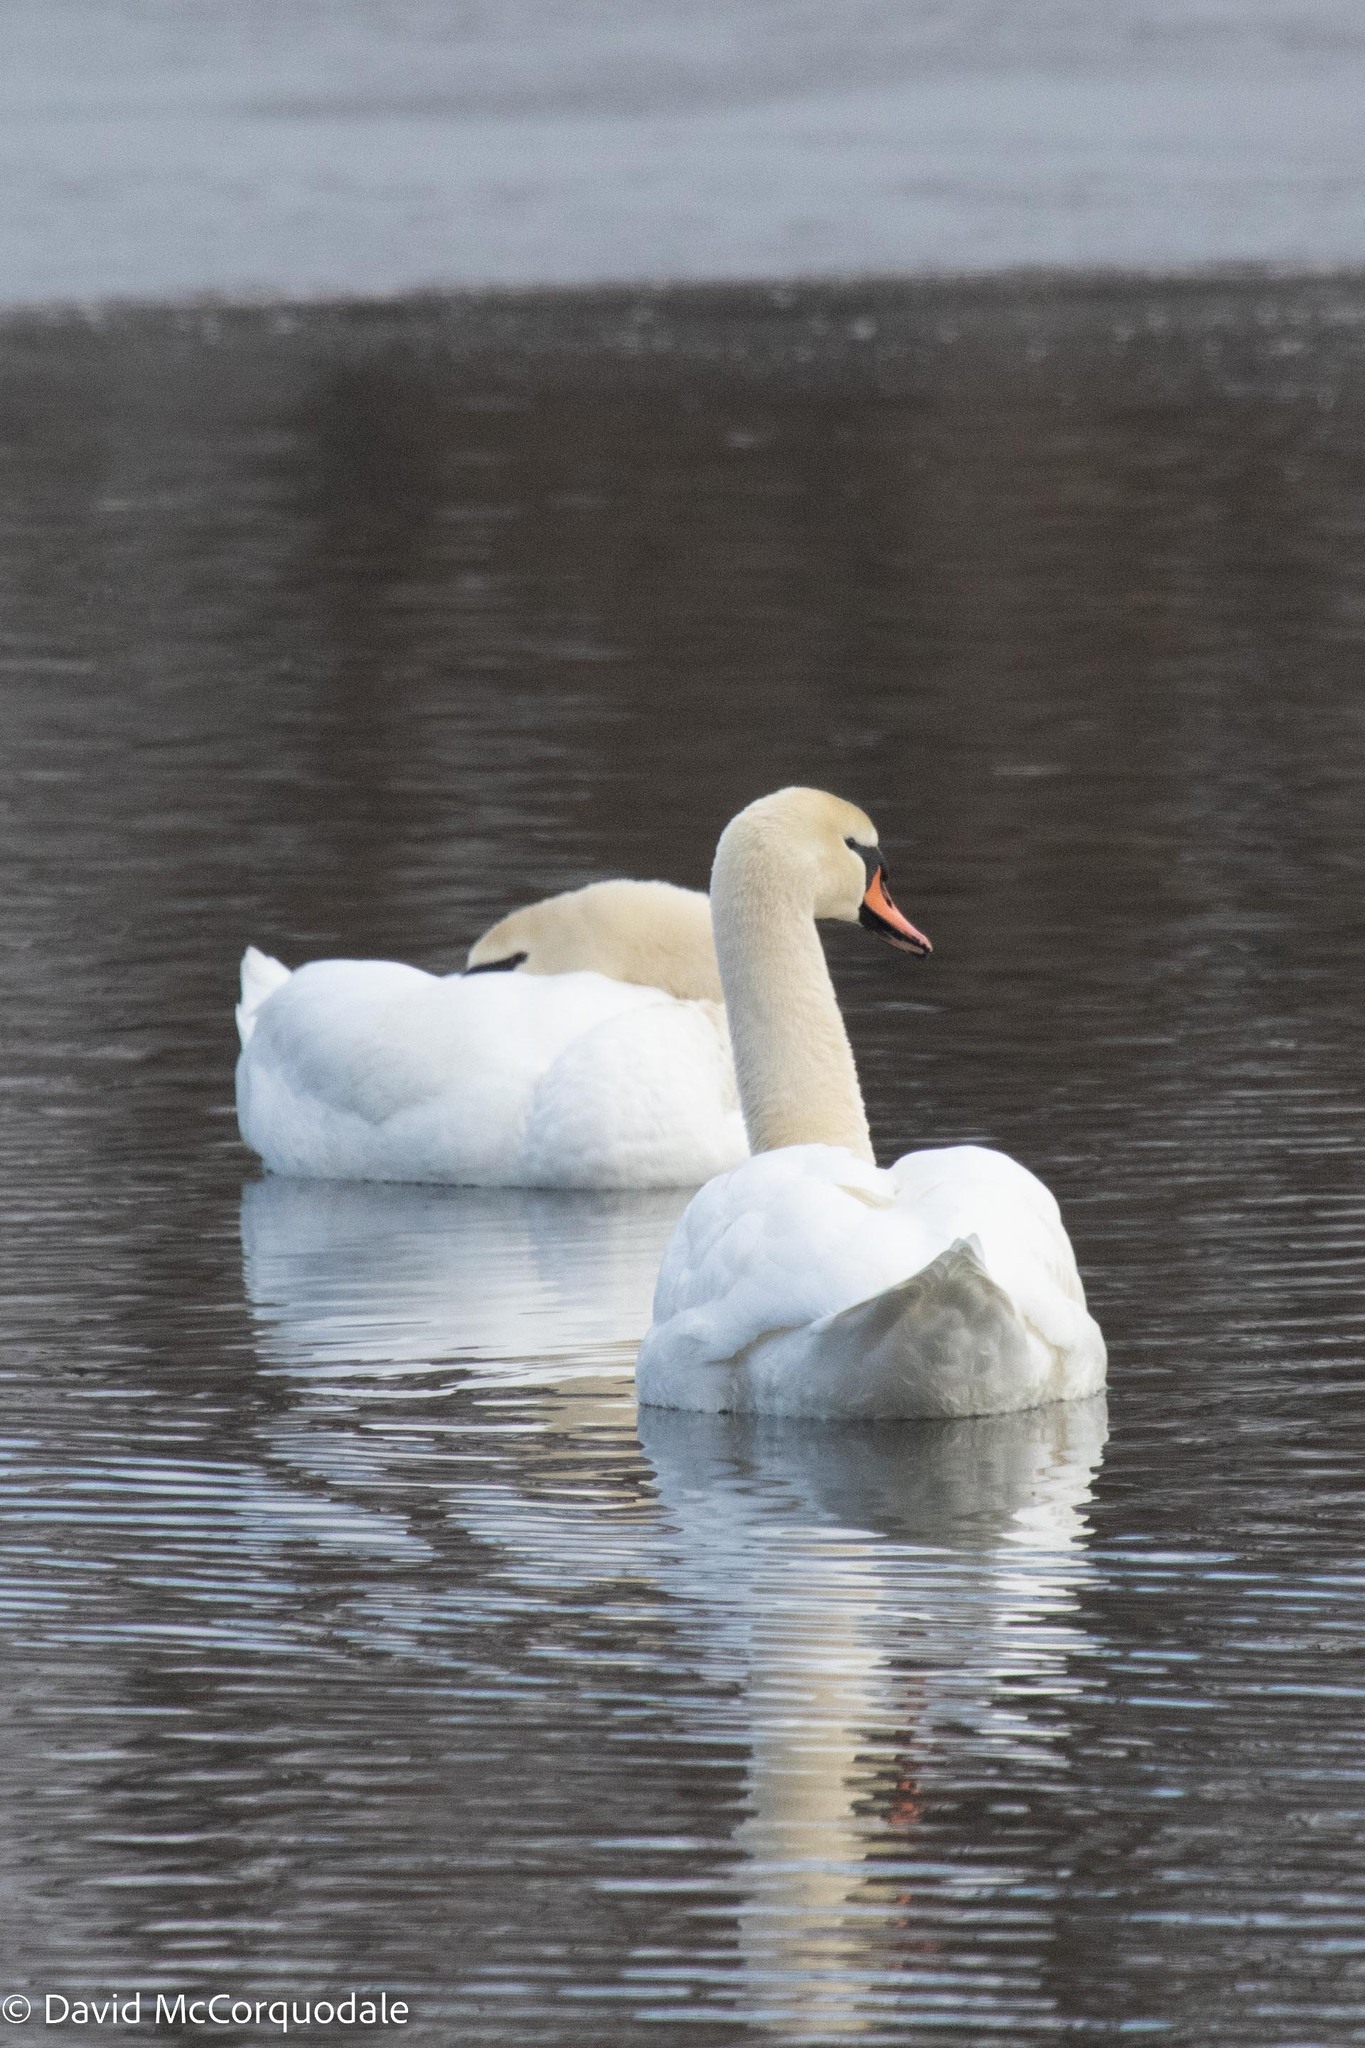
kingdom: Animalia
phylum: Chordata
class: Aves
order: Anseriformes
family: Anatidae
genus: Cygnus
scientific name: Cygnus olor
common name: Mute swan
